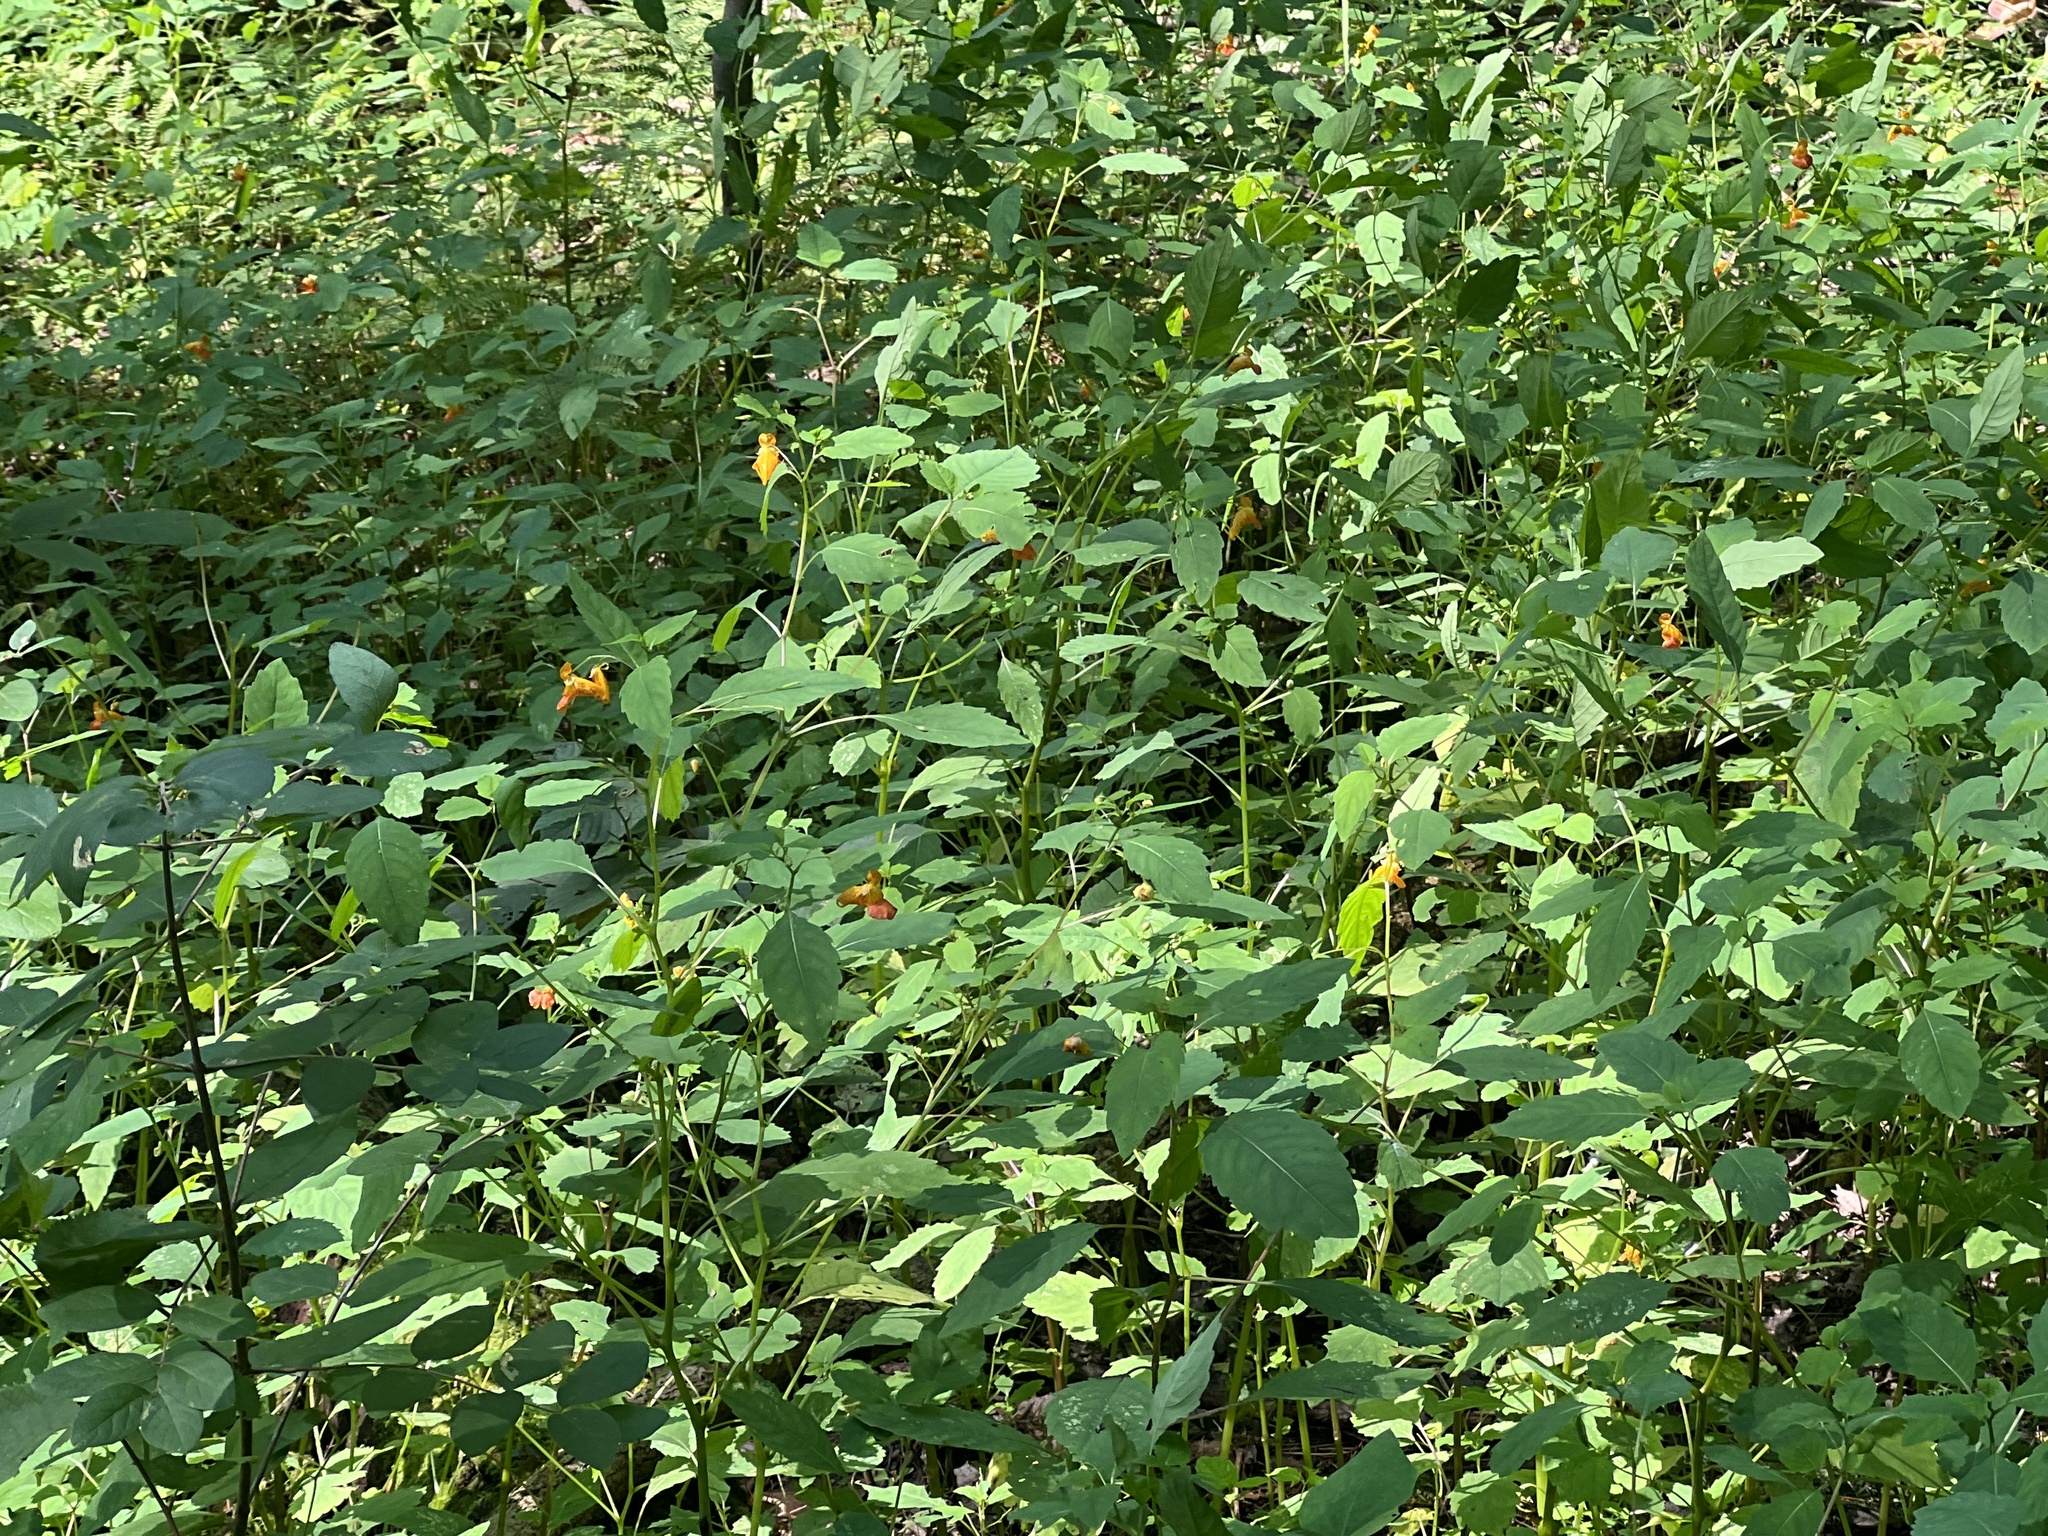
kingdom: Plantae
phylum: Tracheophyta
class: Magnoliopsida
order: Ericales
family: Balsaminaceae
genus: Impatiens
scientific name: Impatiens capensis
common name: Orange balsam
